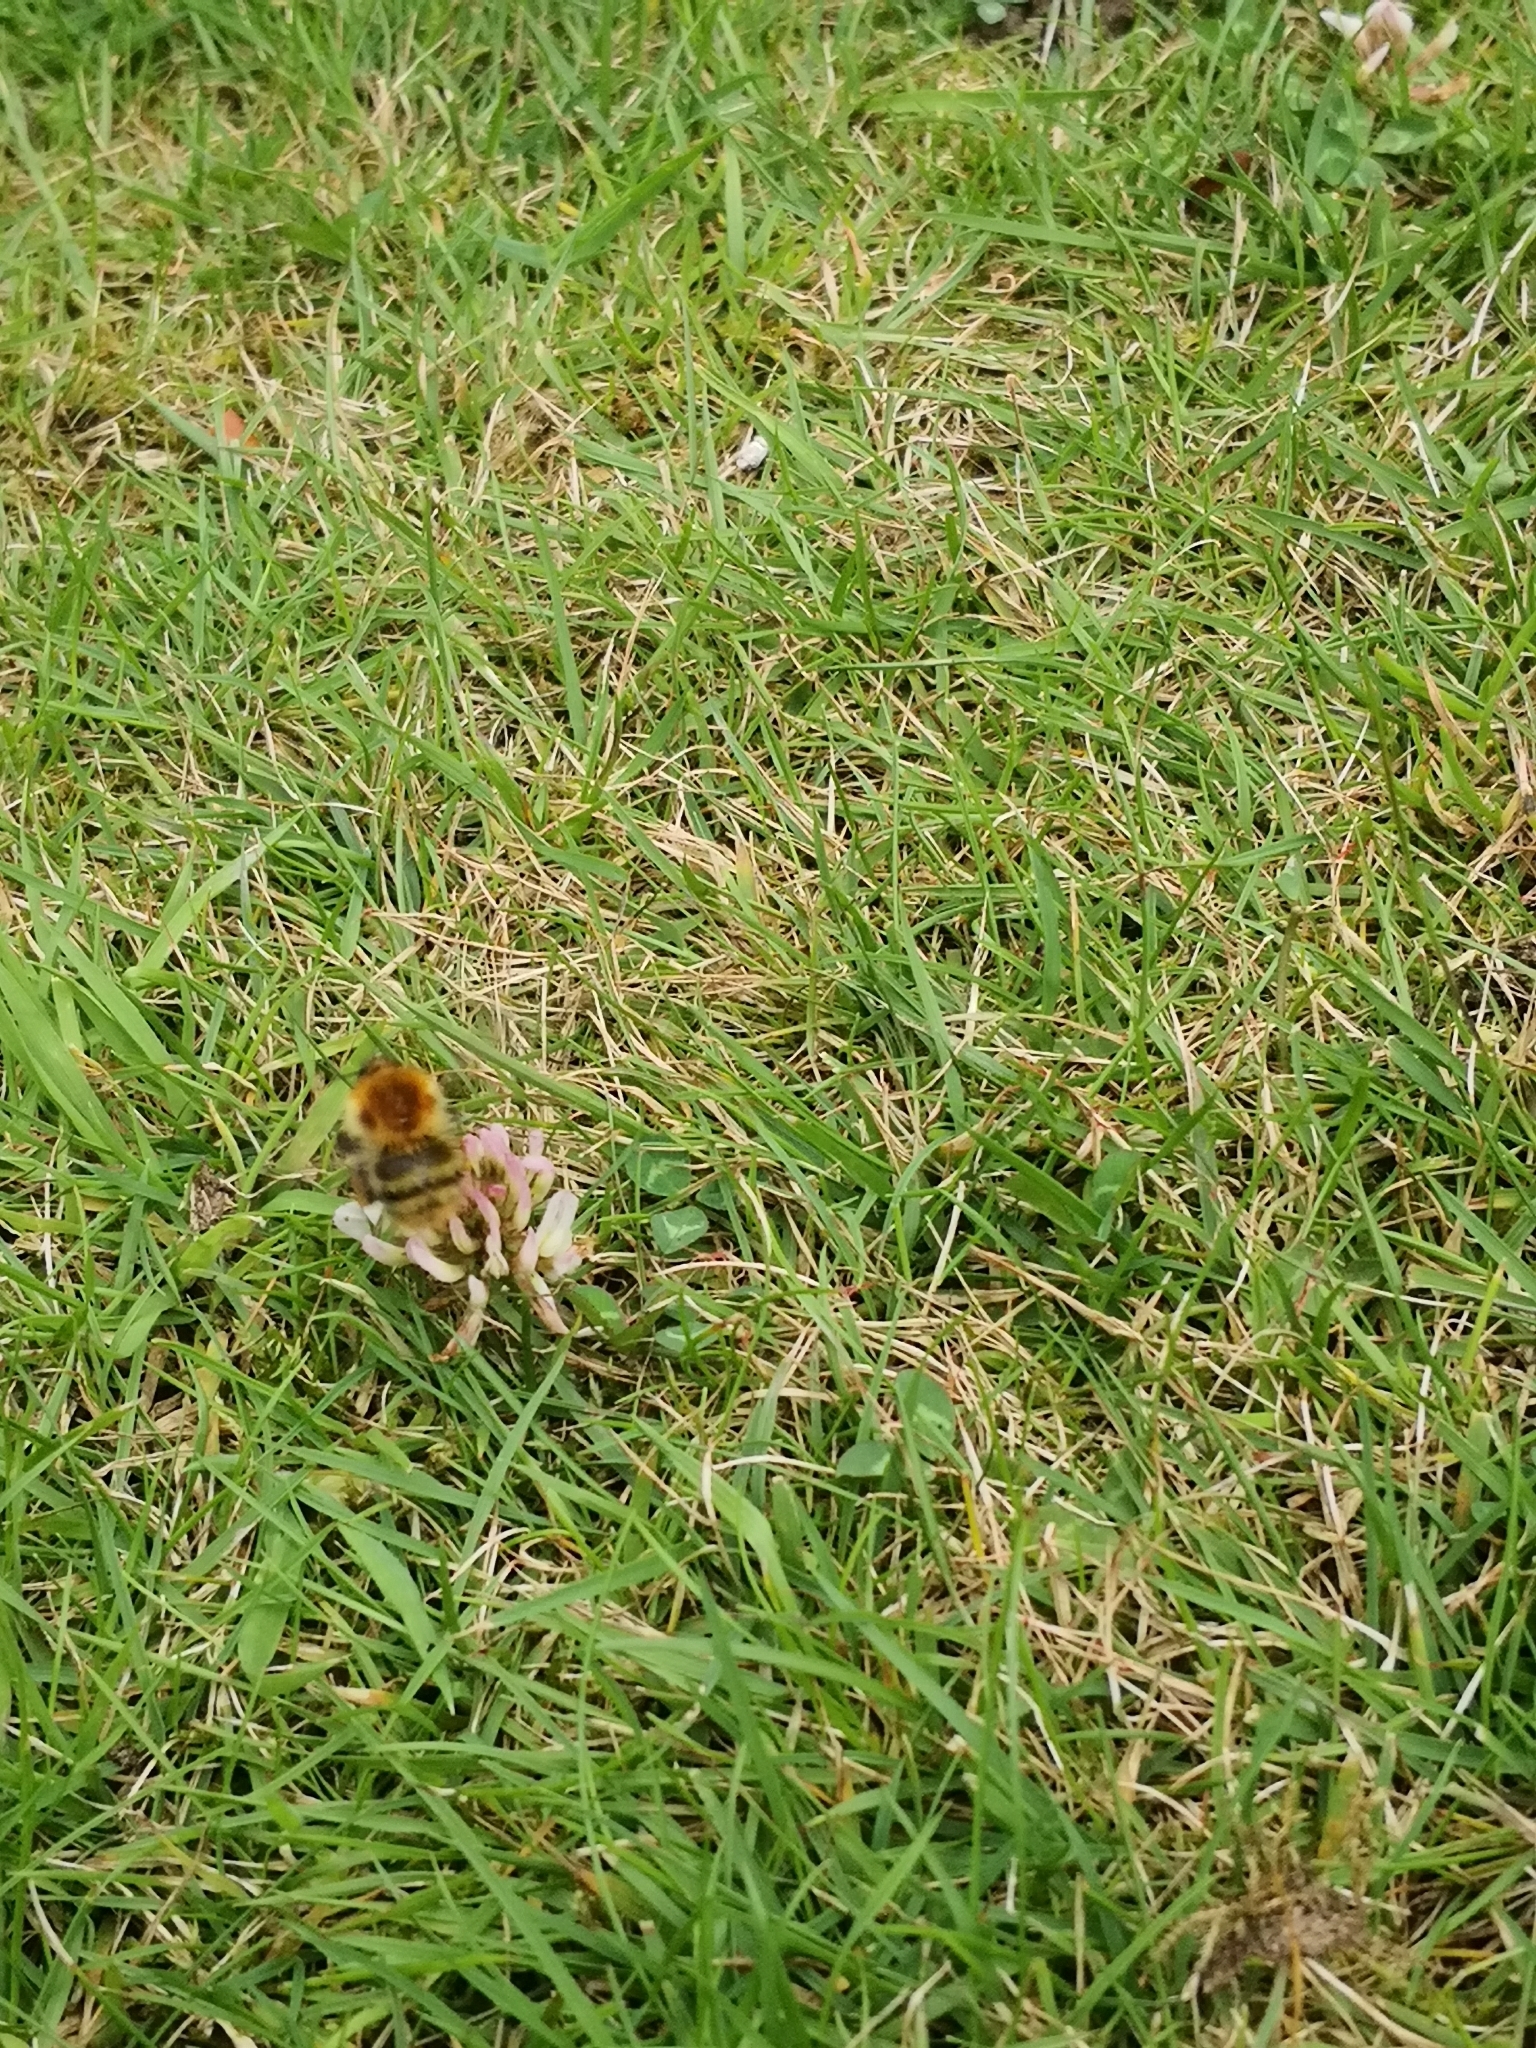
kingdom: Animalia
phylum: Arthropoda
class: Insecta
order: Hymenoptera
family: Apidae
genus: Bombus
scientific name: Bombus pascuorum
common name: Common carder bee
